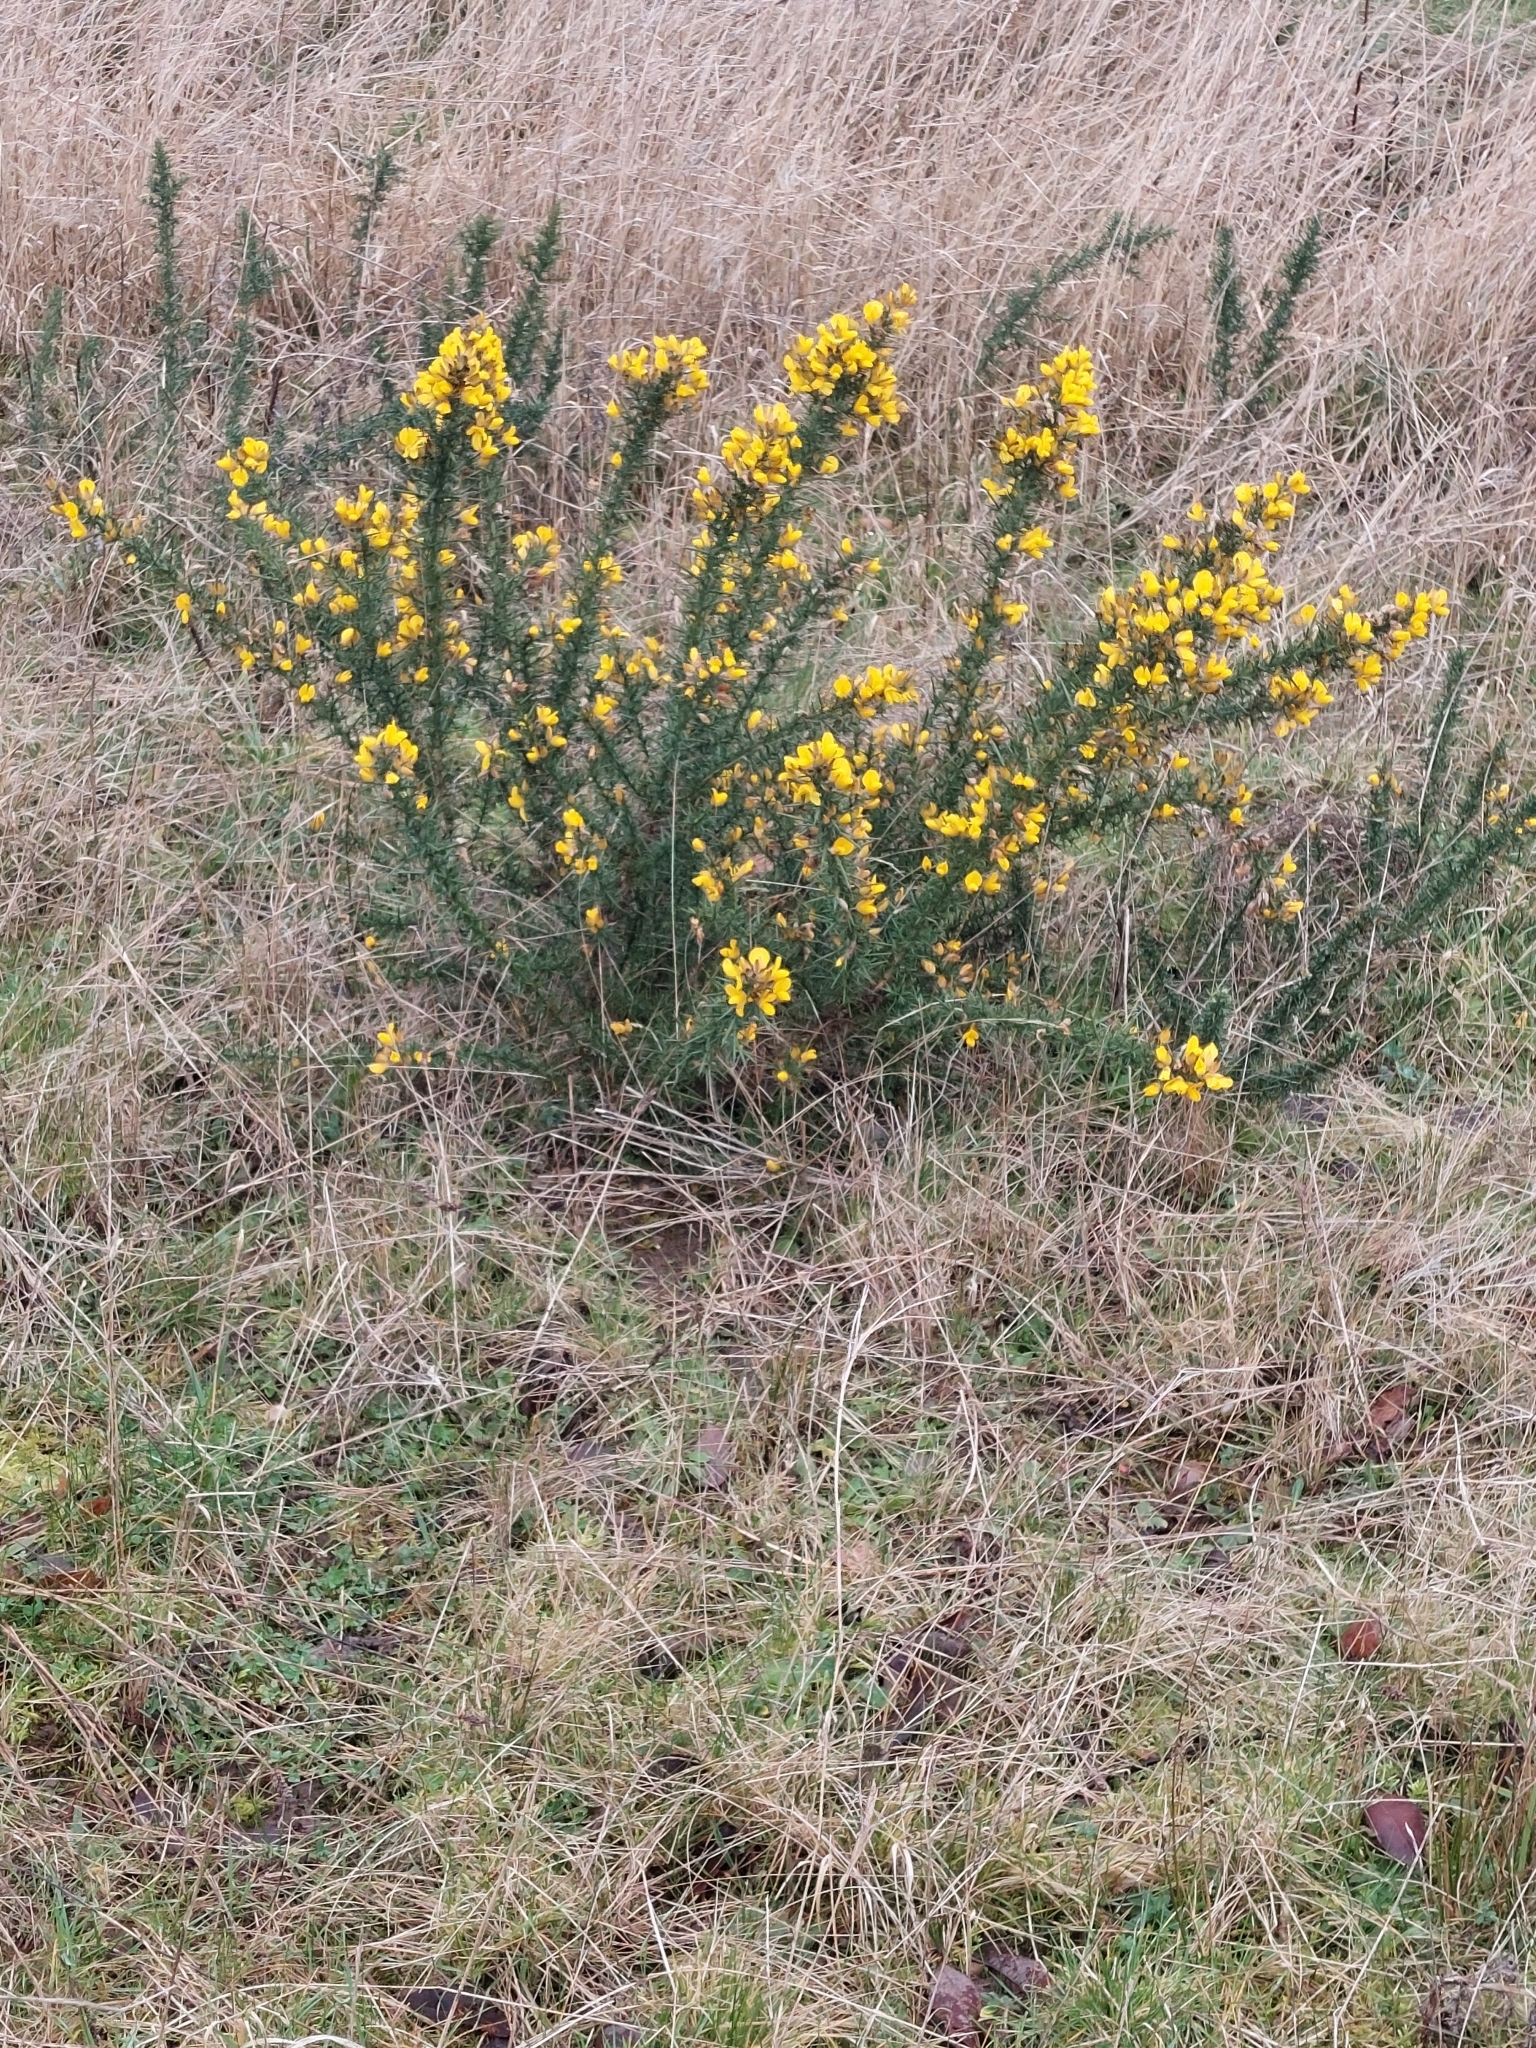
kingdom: Plantae
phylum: Tracheophyta
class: Magnoliopsida
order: Fabales
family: Fabaceae
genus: Ulex
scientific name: Ulex europaeus
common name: Common gorse
